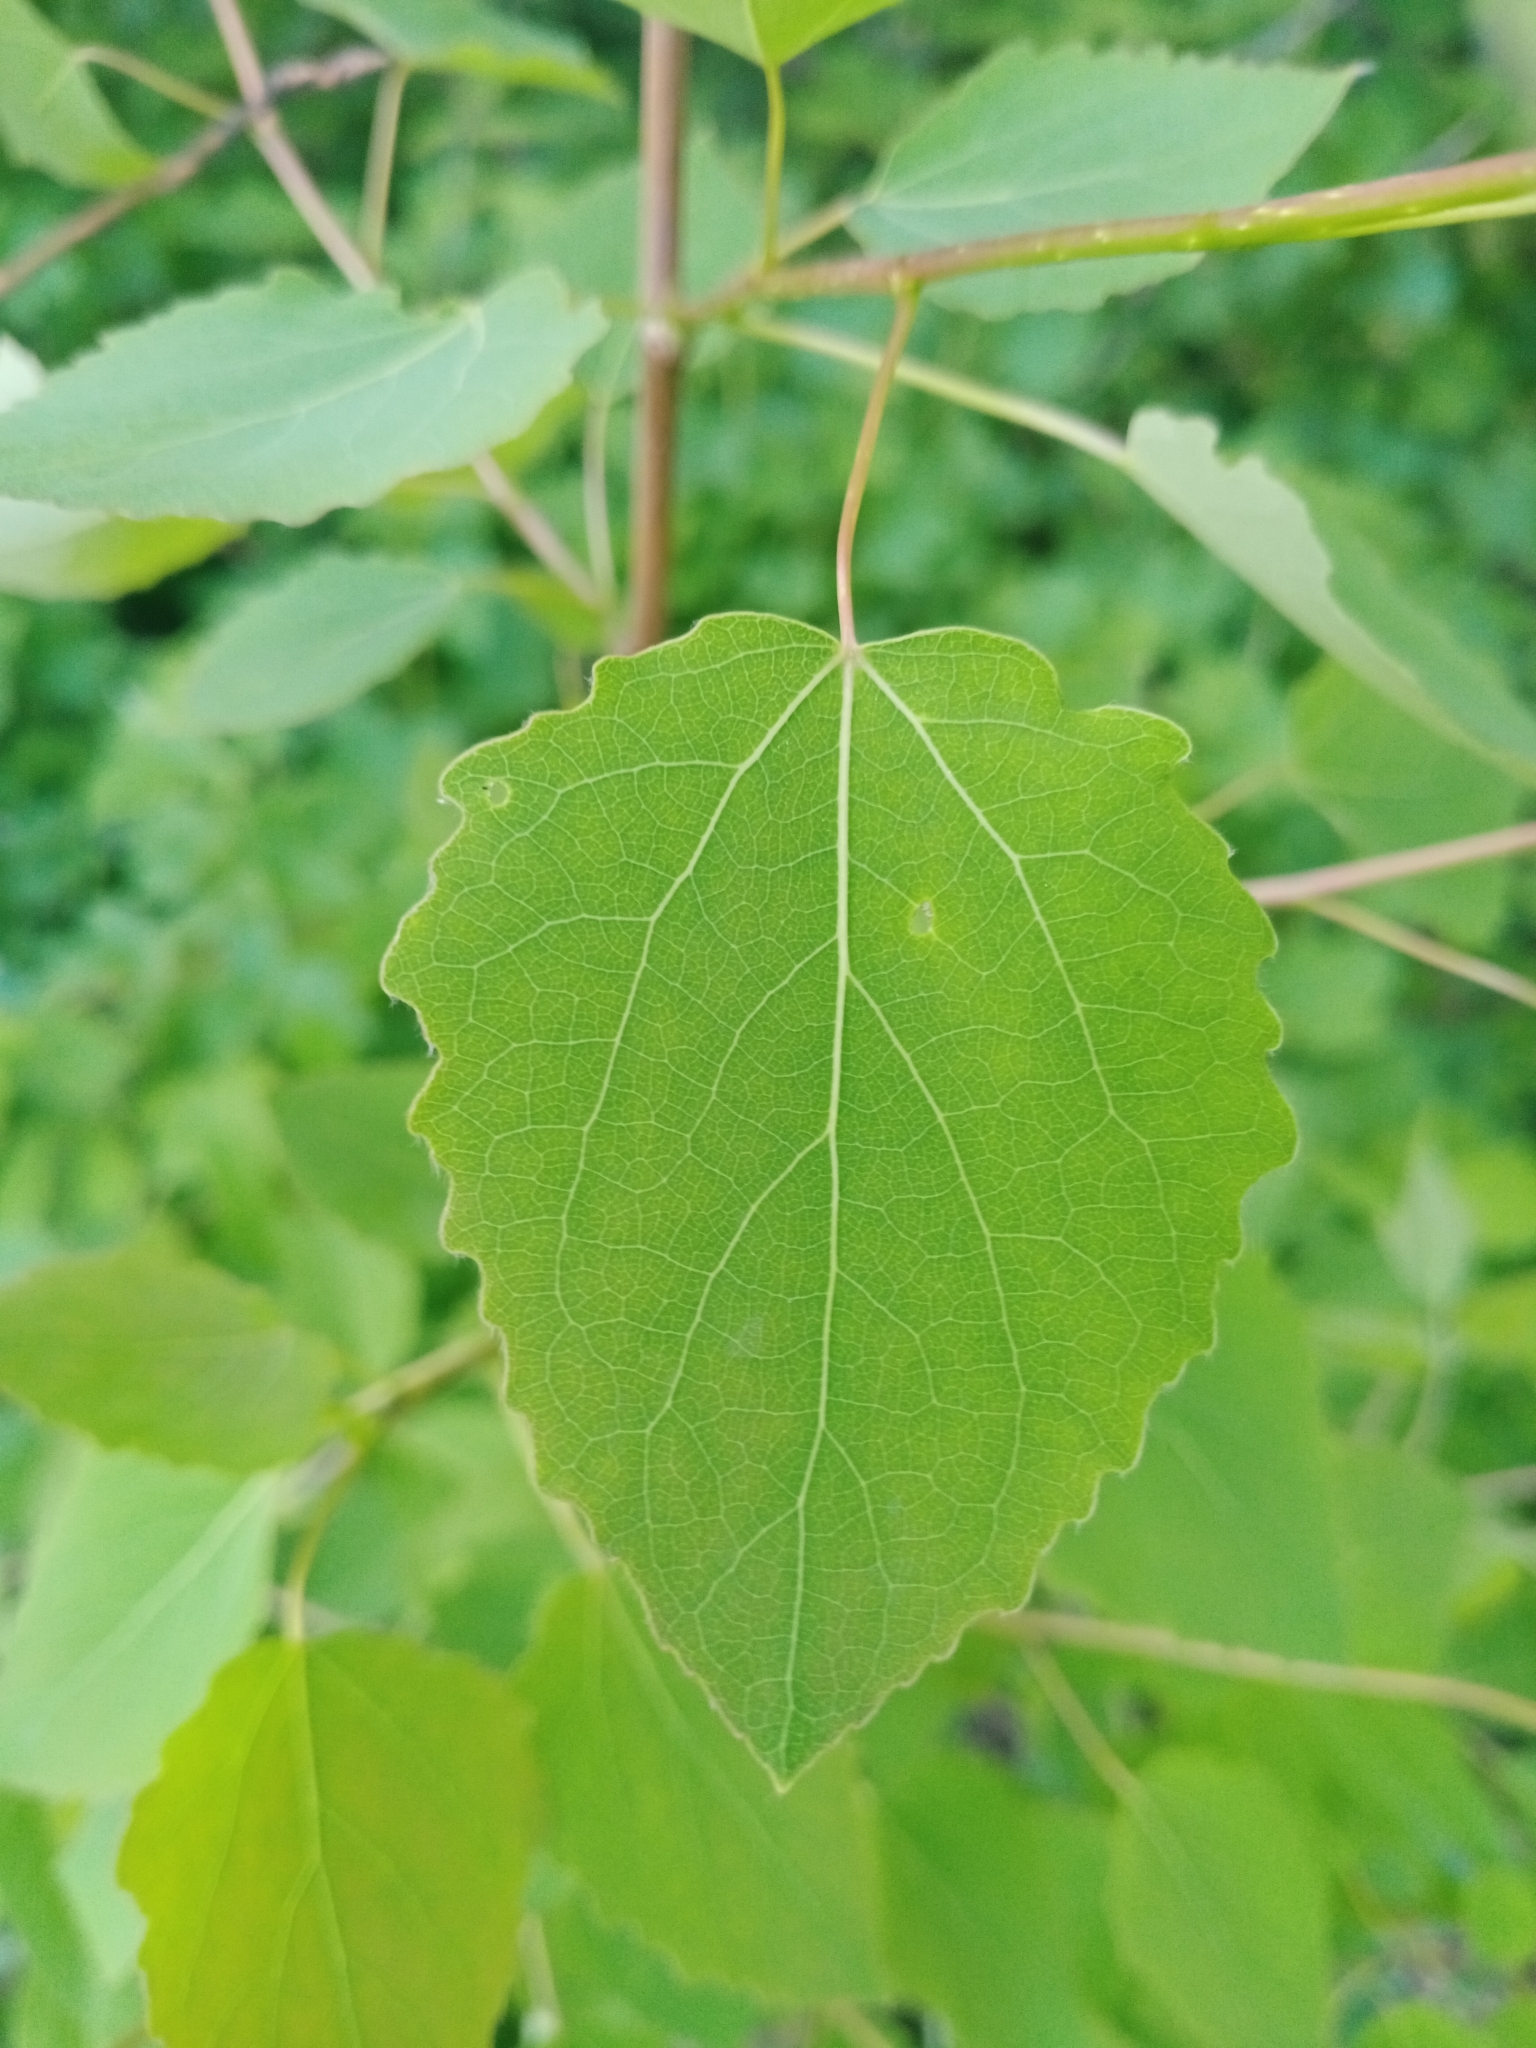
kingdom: Plantae
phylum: Tracheophyta
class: Magnoliopsida
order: Malpighiales
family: Salicaceae
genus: Populus
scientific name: Populus tremula
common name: European aspen
